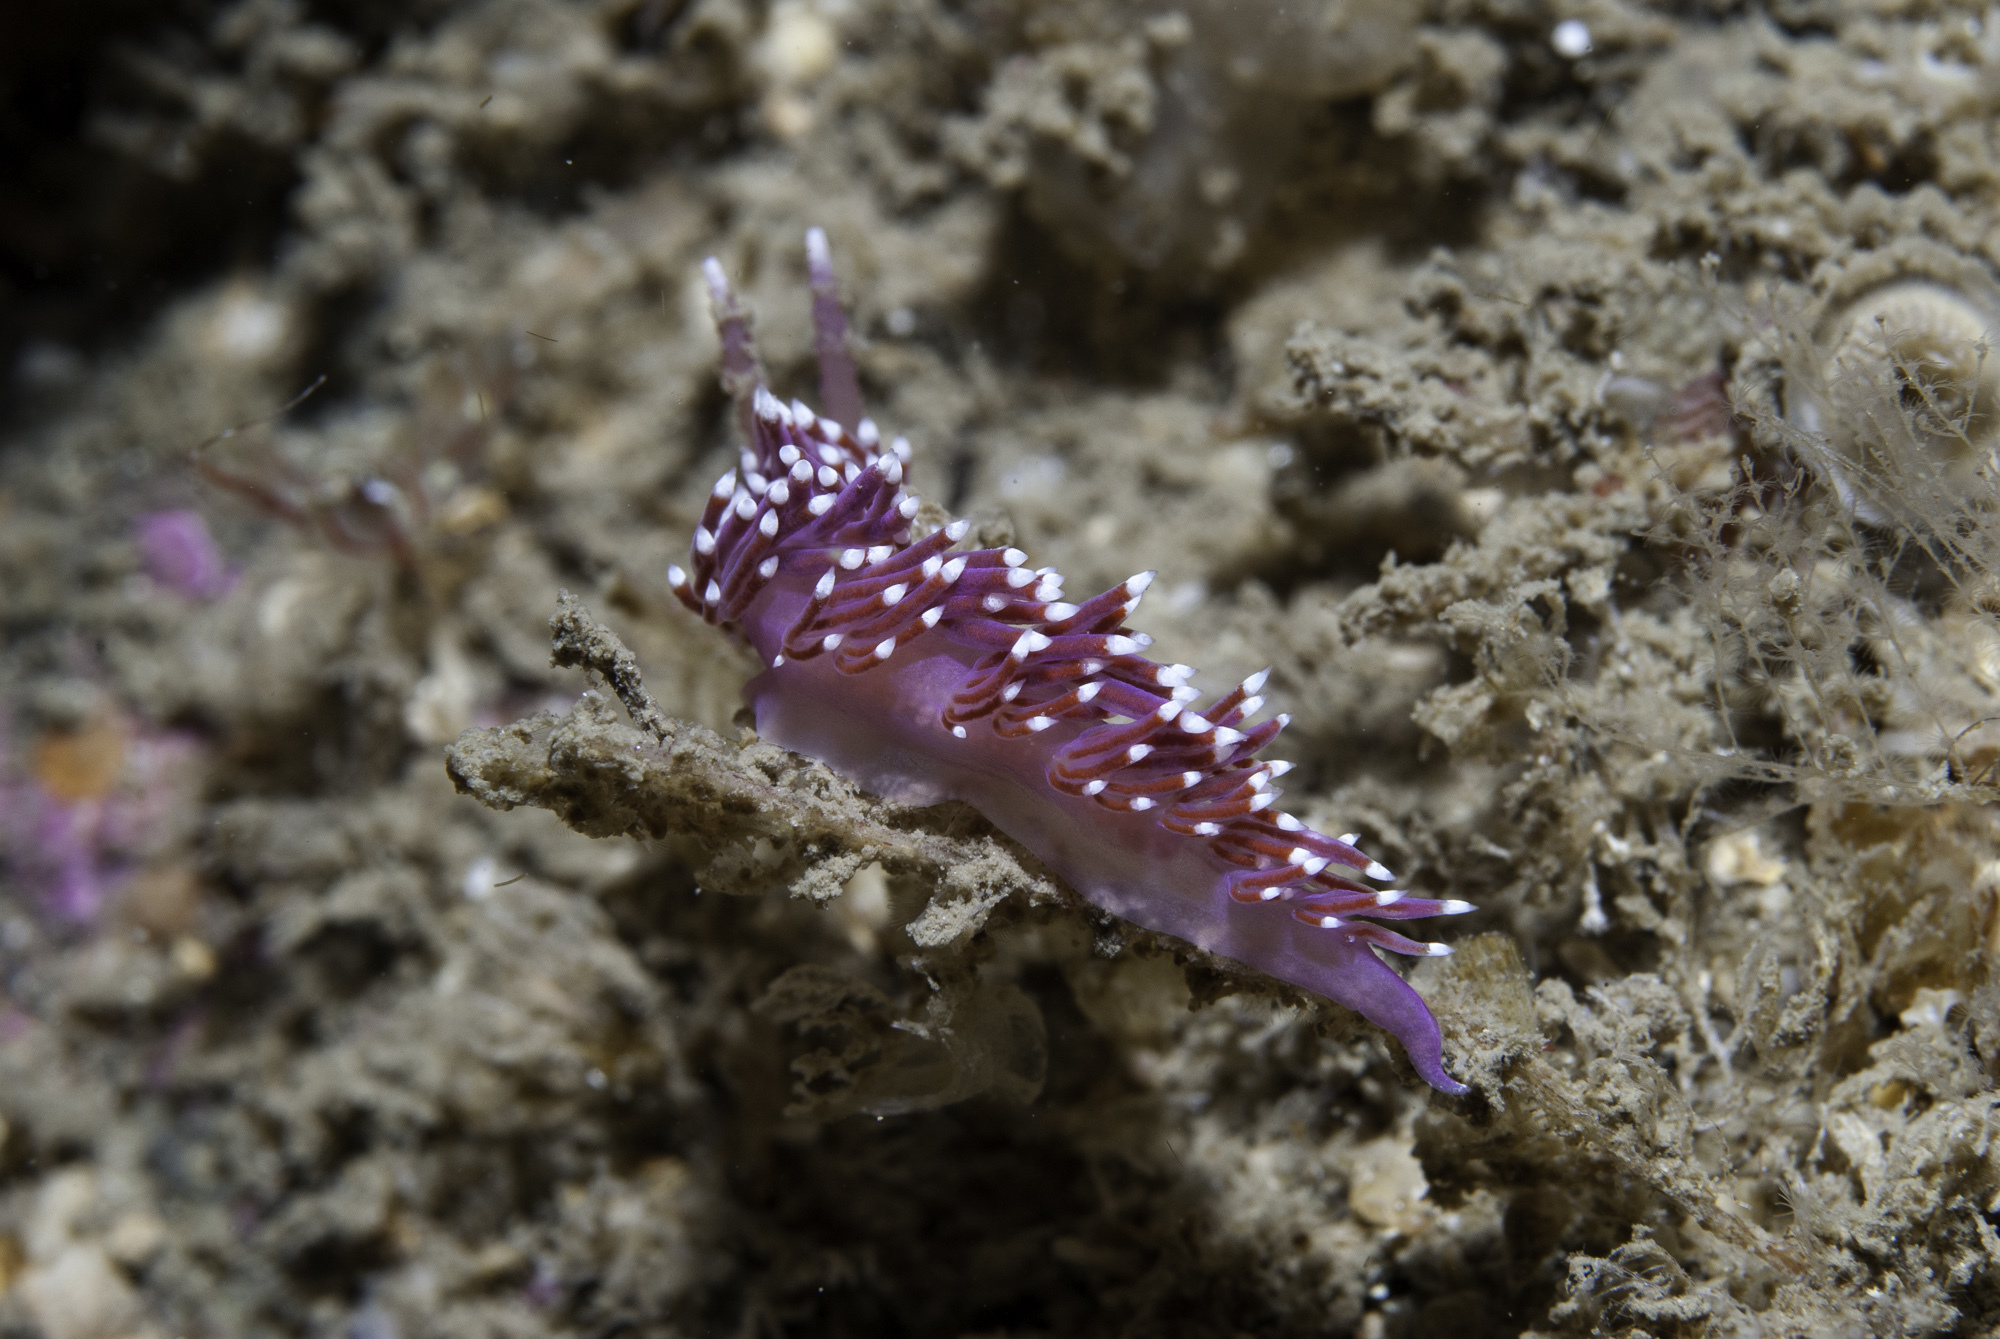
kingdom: Animalia
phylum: Mollusca
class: Gastropoda
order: Nudibranchia
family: Flabellinidae
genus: Edmundsella
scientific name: Edmundsella pedata
